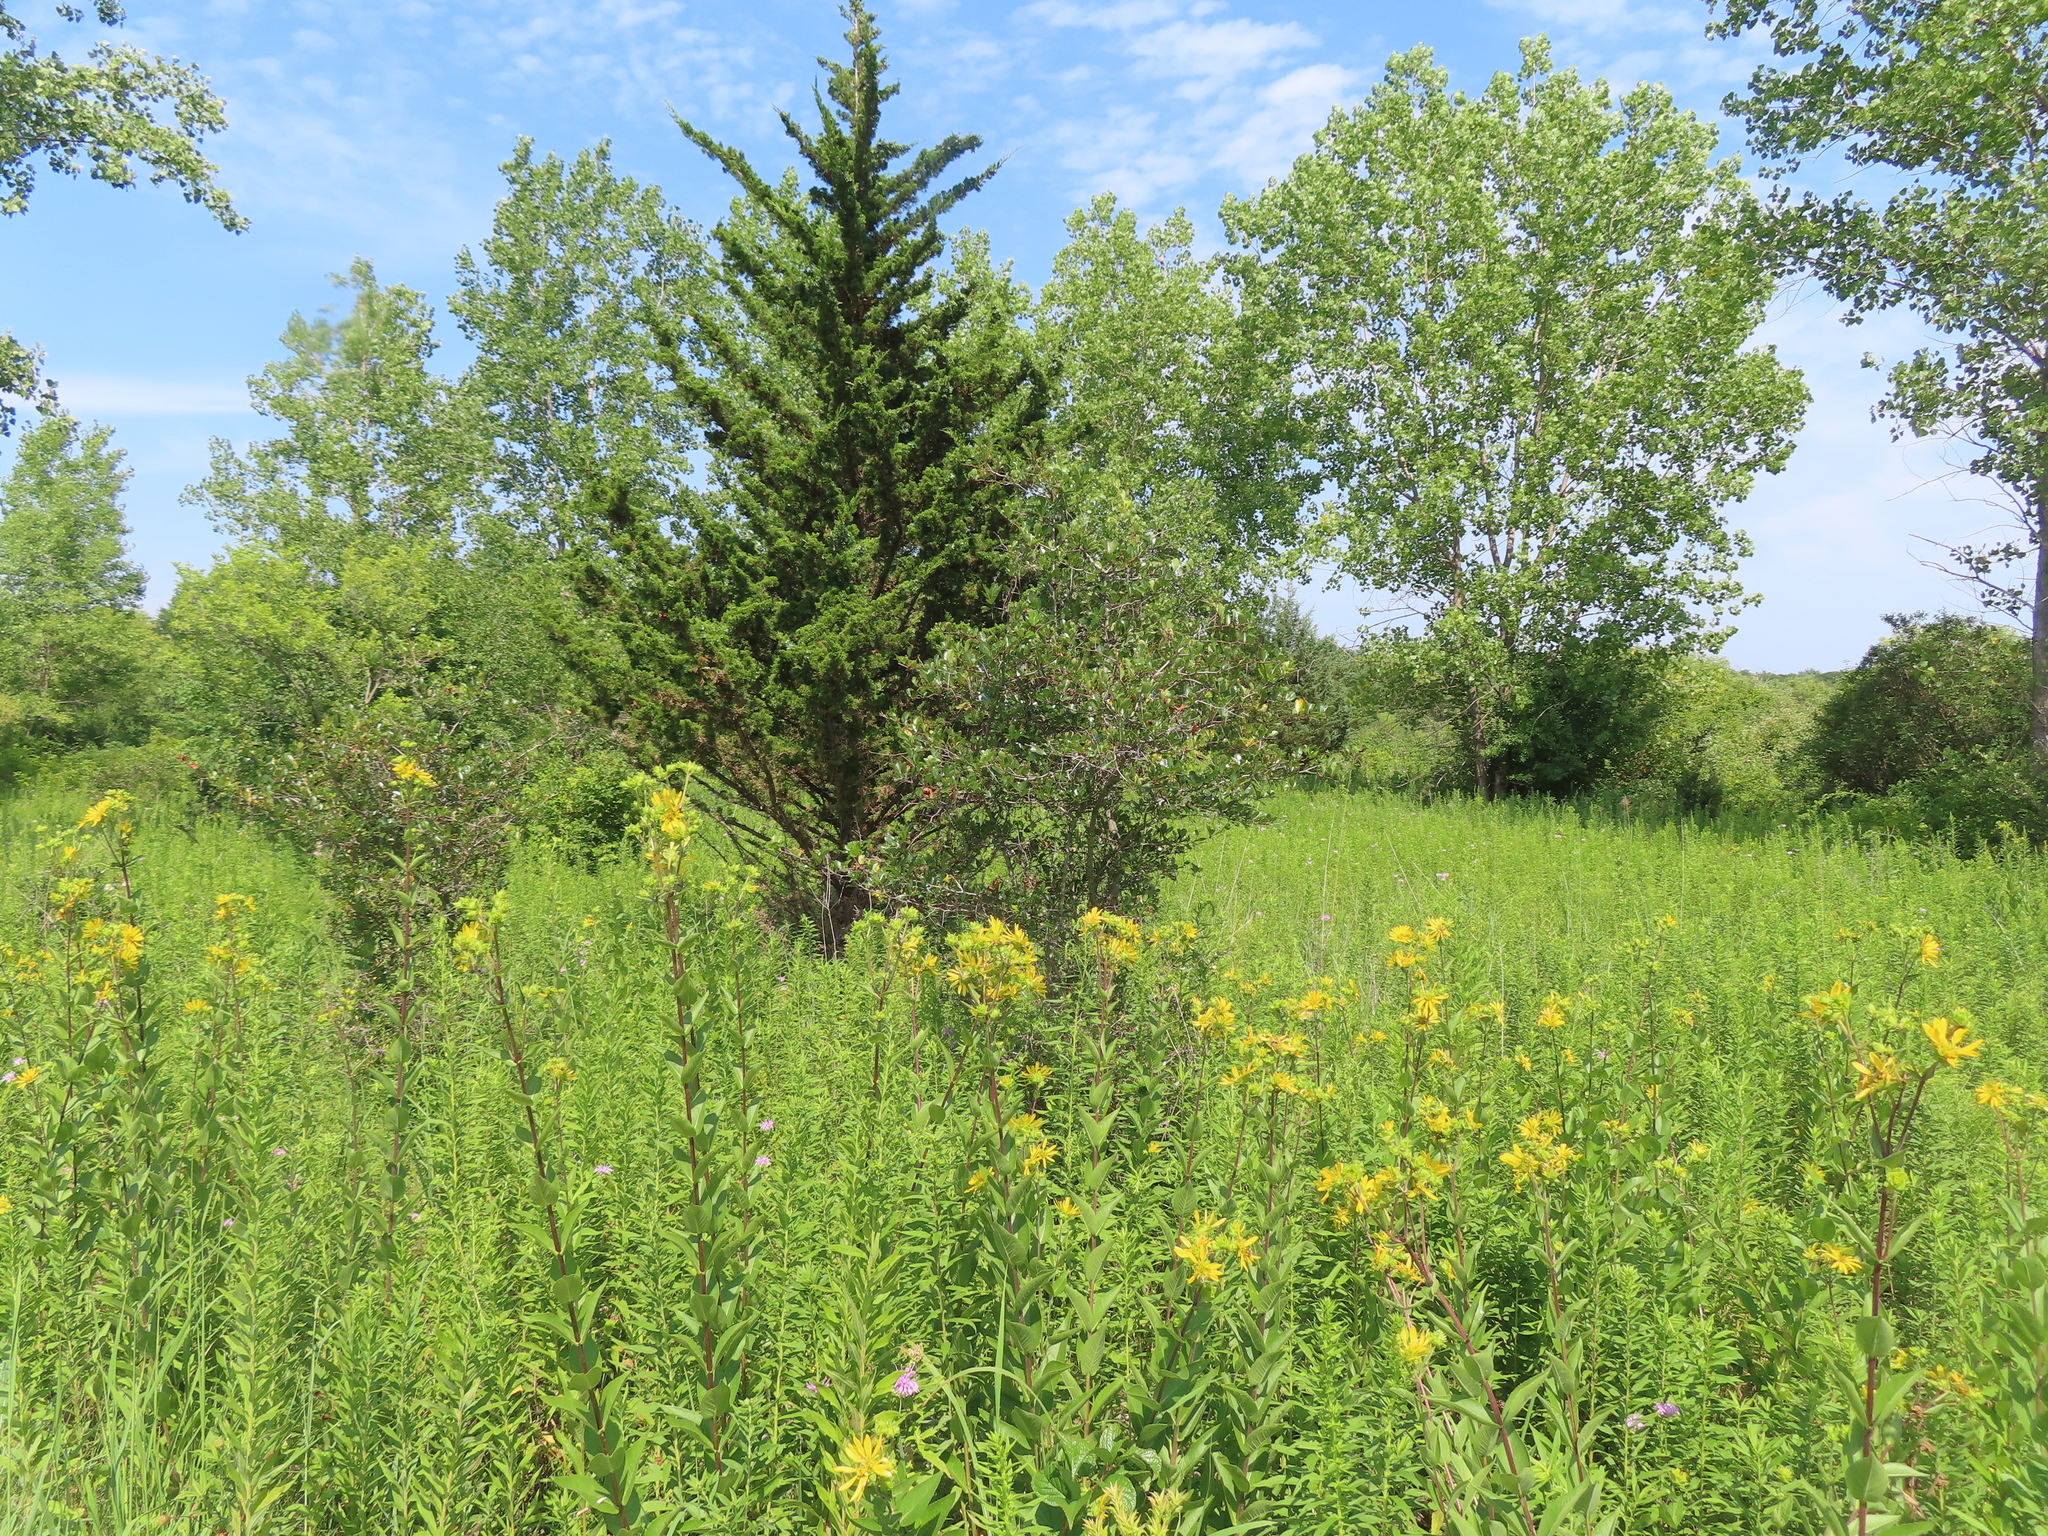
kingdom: Plantae
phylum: Tracheophyta
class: Pinopsida
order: Pinales
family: Cupressaceae
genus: Juniperus
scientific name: Juniperus virginiana
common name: Red juniper
